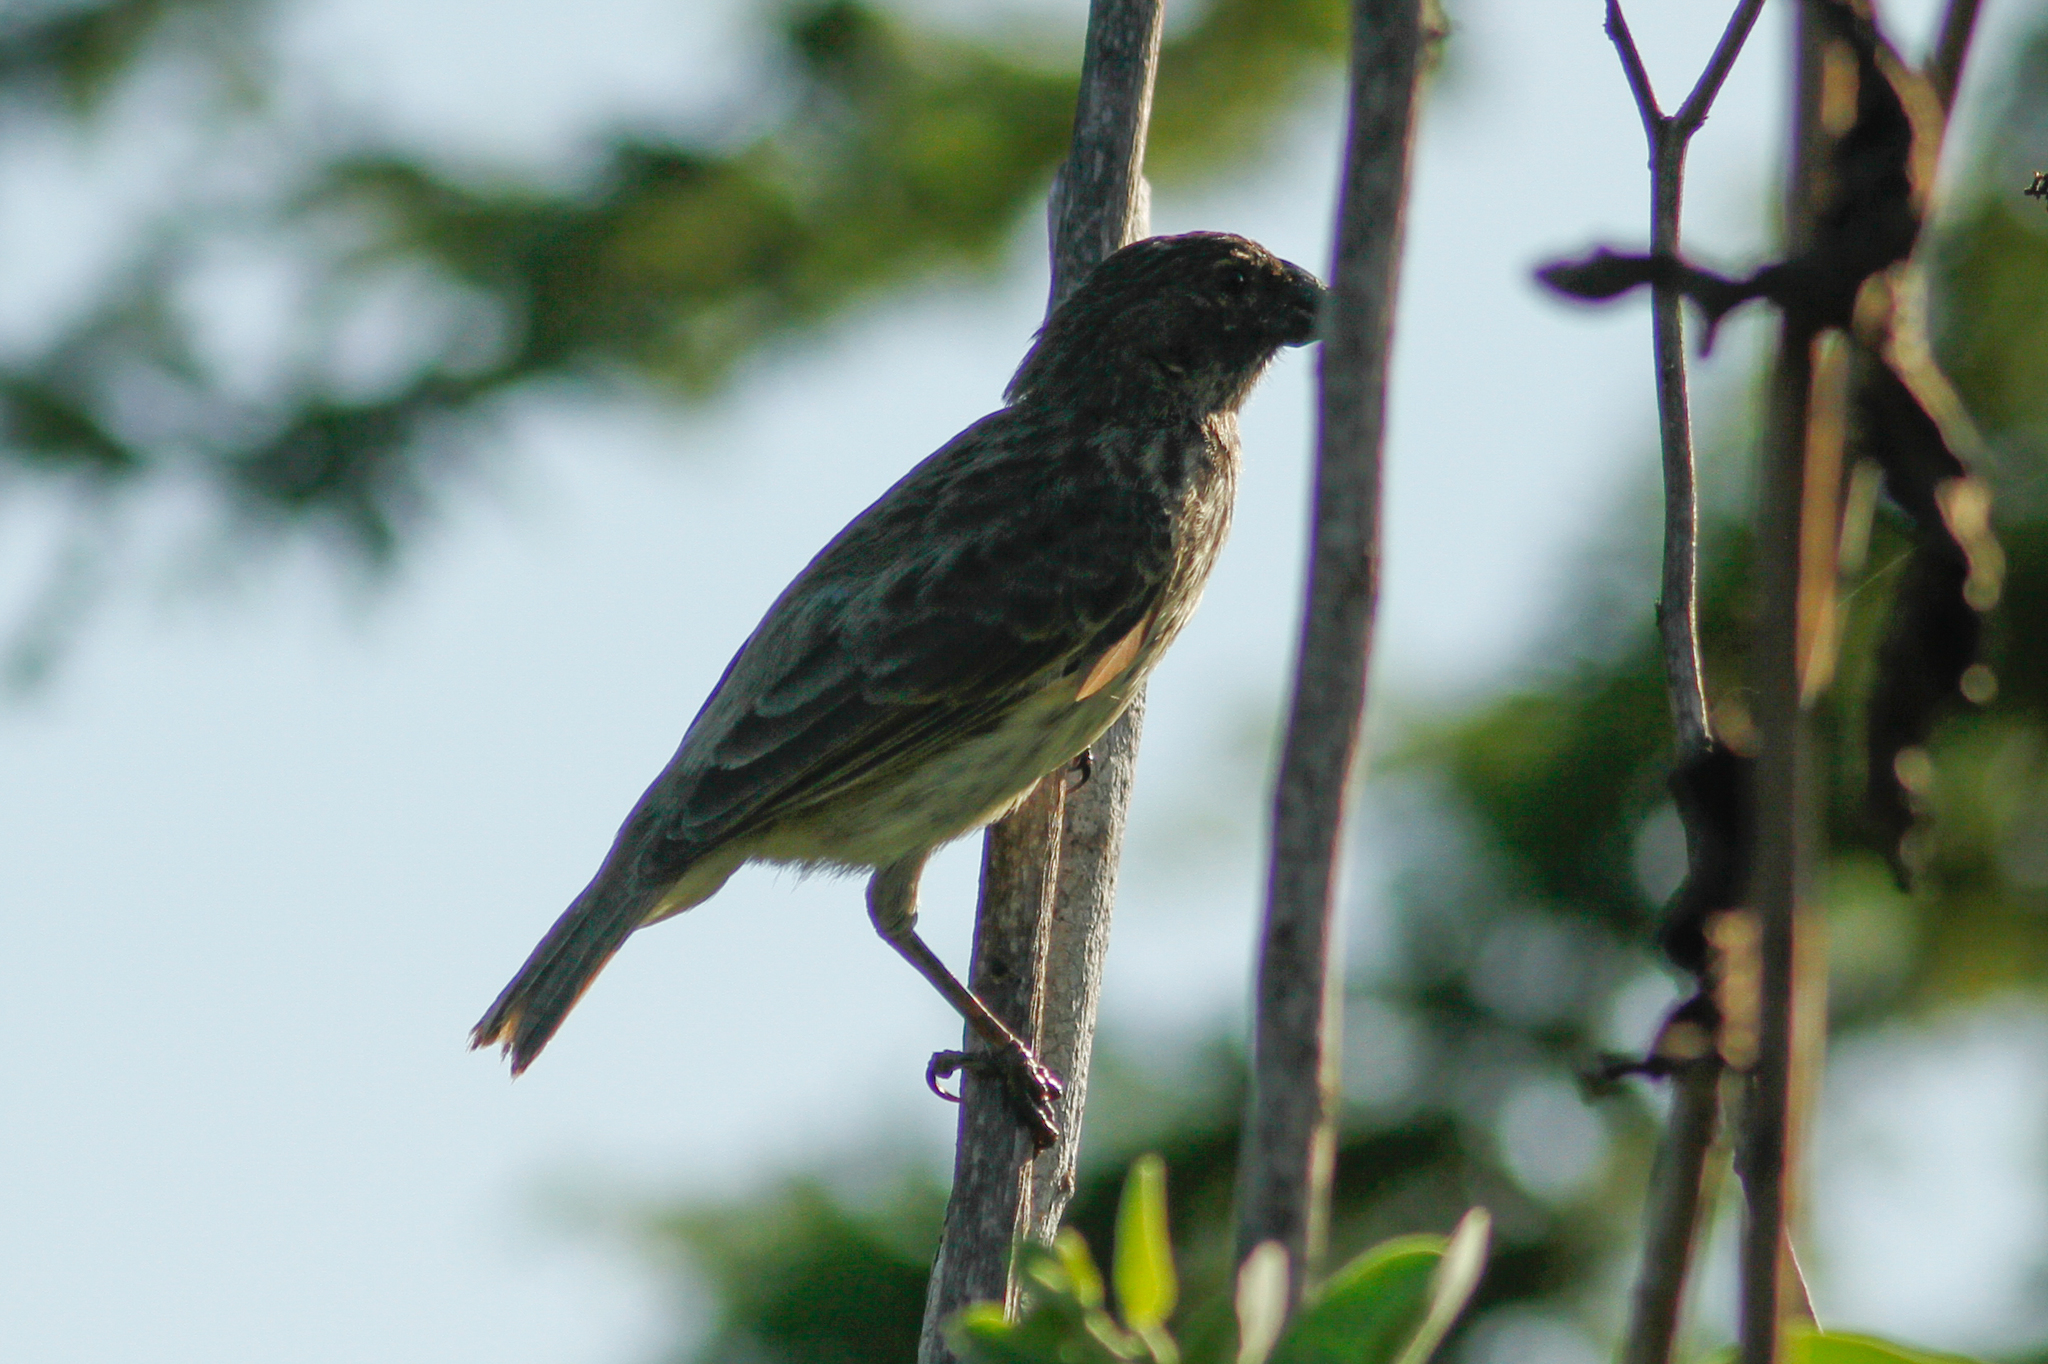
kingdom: Animalia
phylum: Chordata
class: Aves
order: Passeriformes
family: Thraupidae
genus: Platyspiza
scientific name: Platyspiza crassirostris
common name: Vegetarian finch
